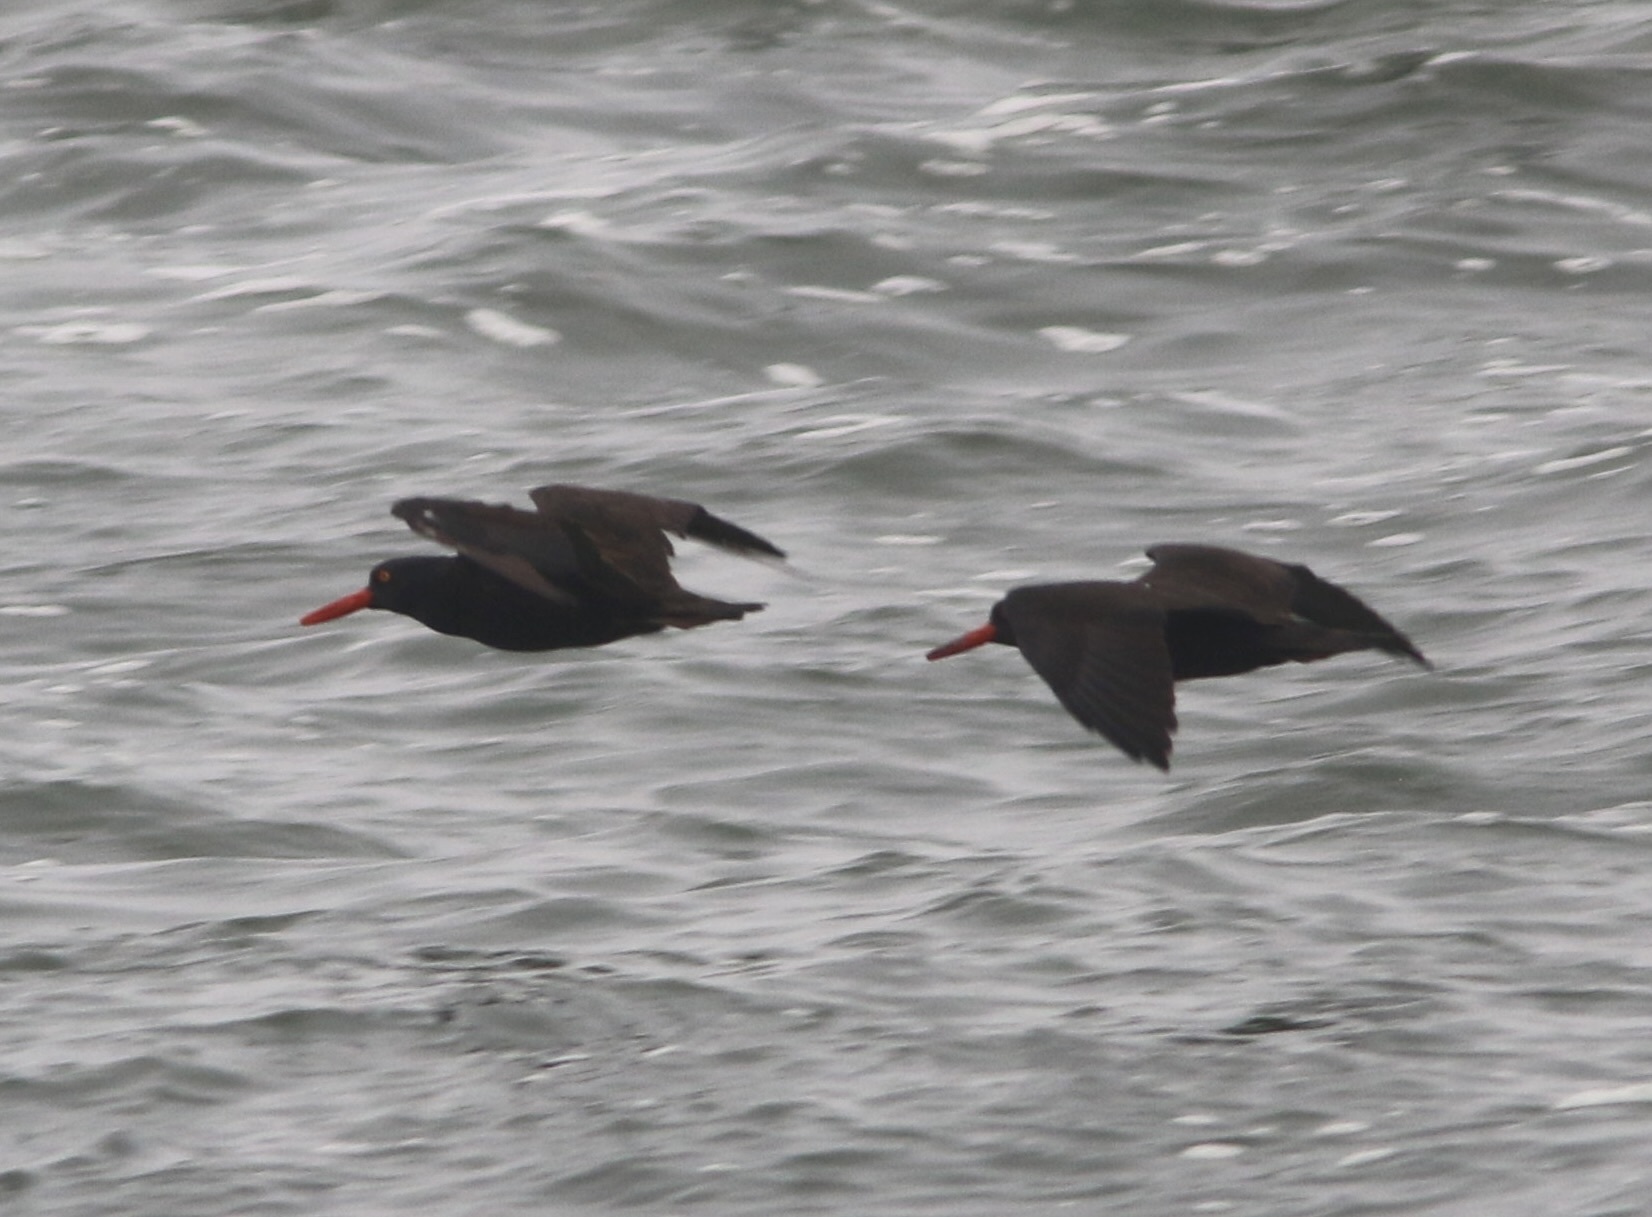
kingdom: Animalia
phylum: Chordata
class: Aves
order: Charadriiformes
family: Haematopodidae
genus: Haematopus
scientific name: Haematopus bachmani
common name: Black oystercatcher
